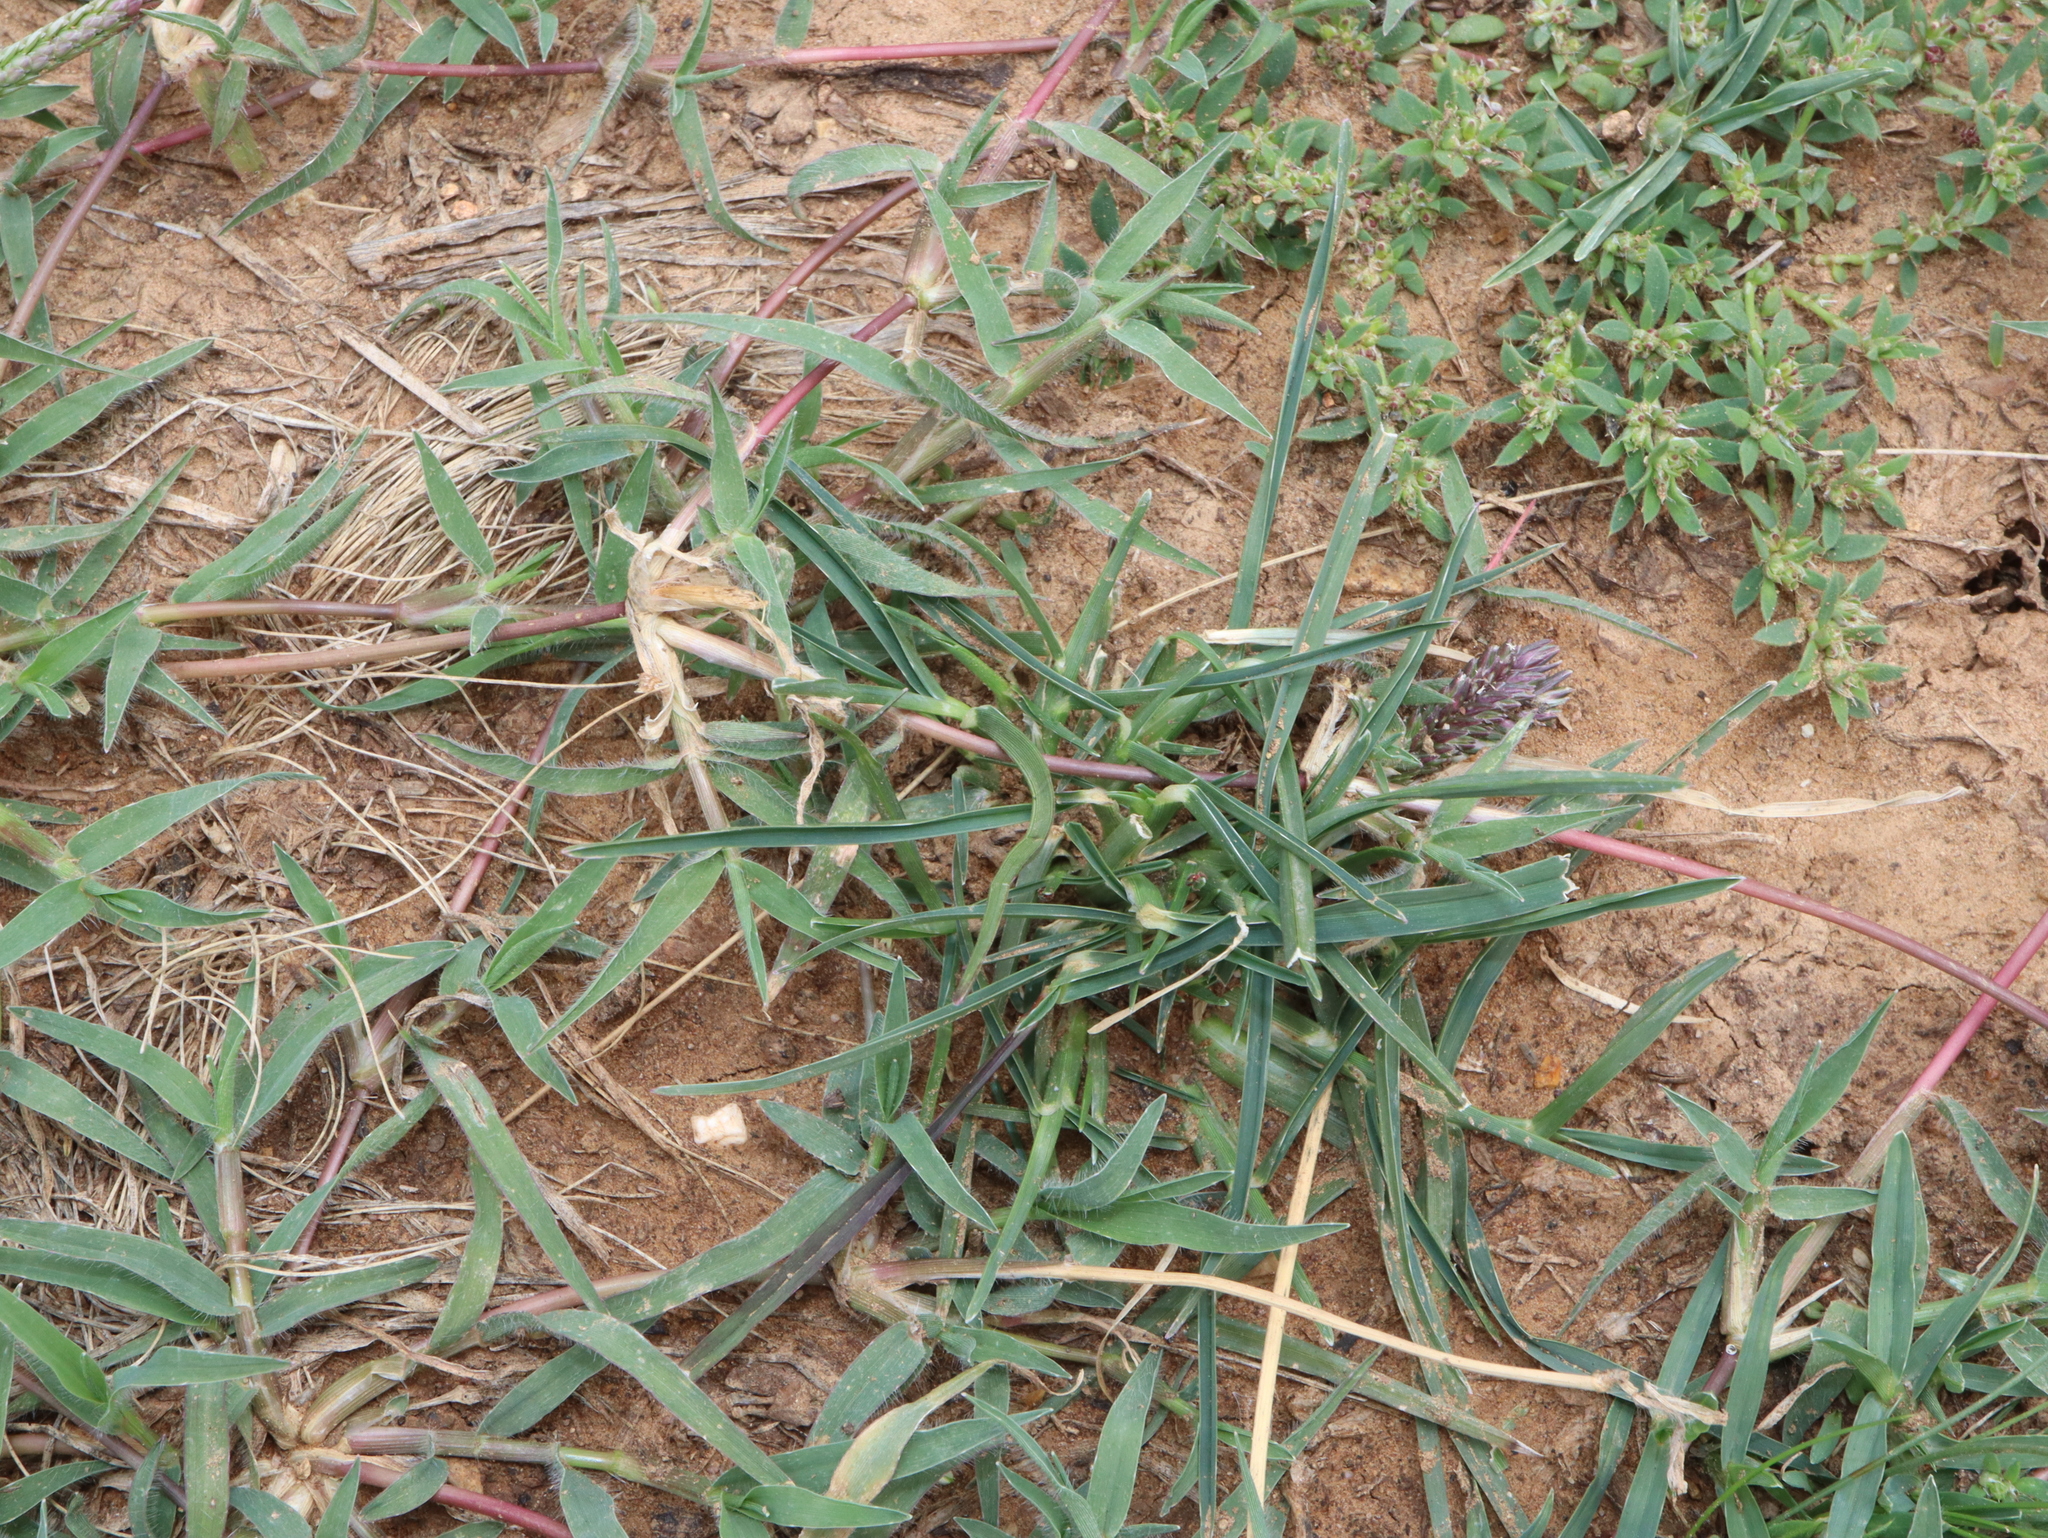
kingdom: Plantae
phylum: Tracheophyta
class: Liliopsida
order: Poales
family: Poaceae
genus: Eleusine
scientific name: Eleusine tristachya
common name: American yard-grass
